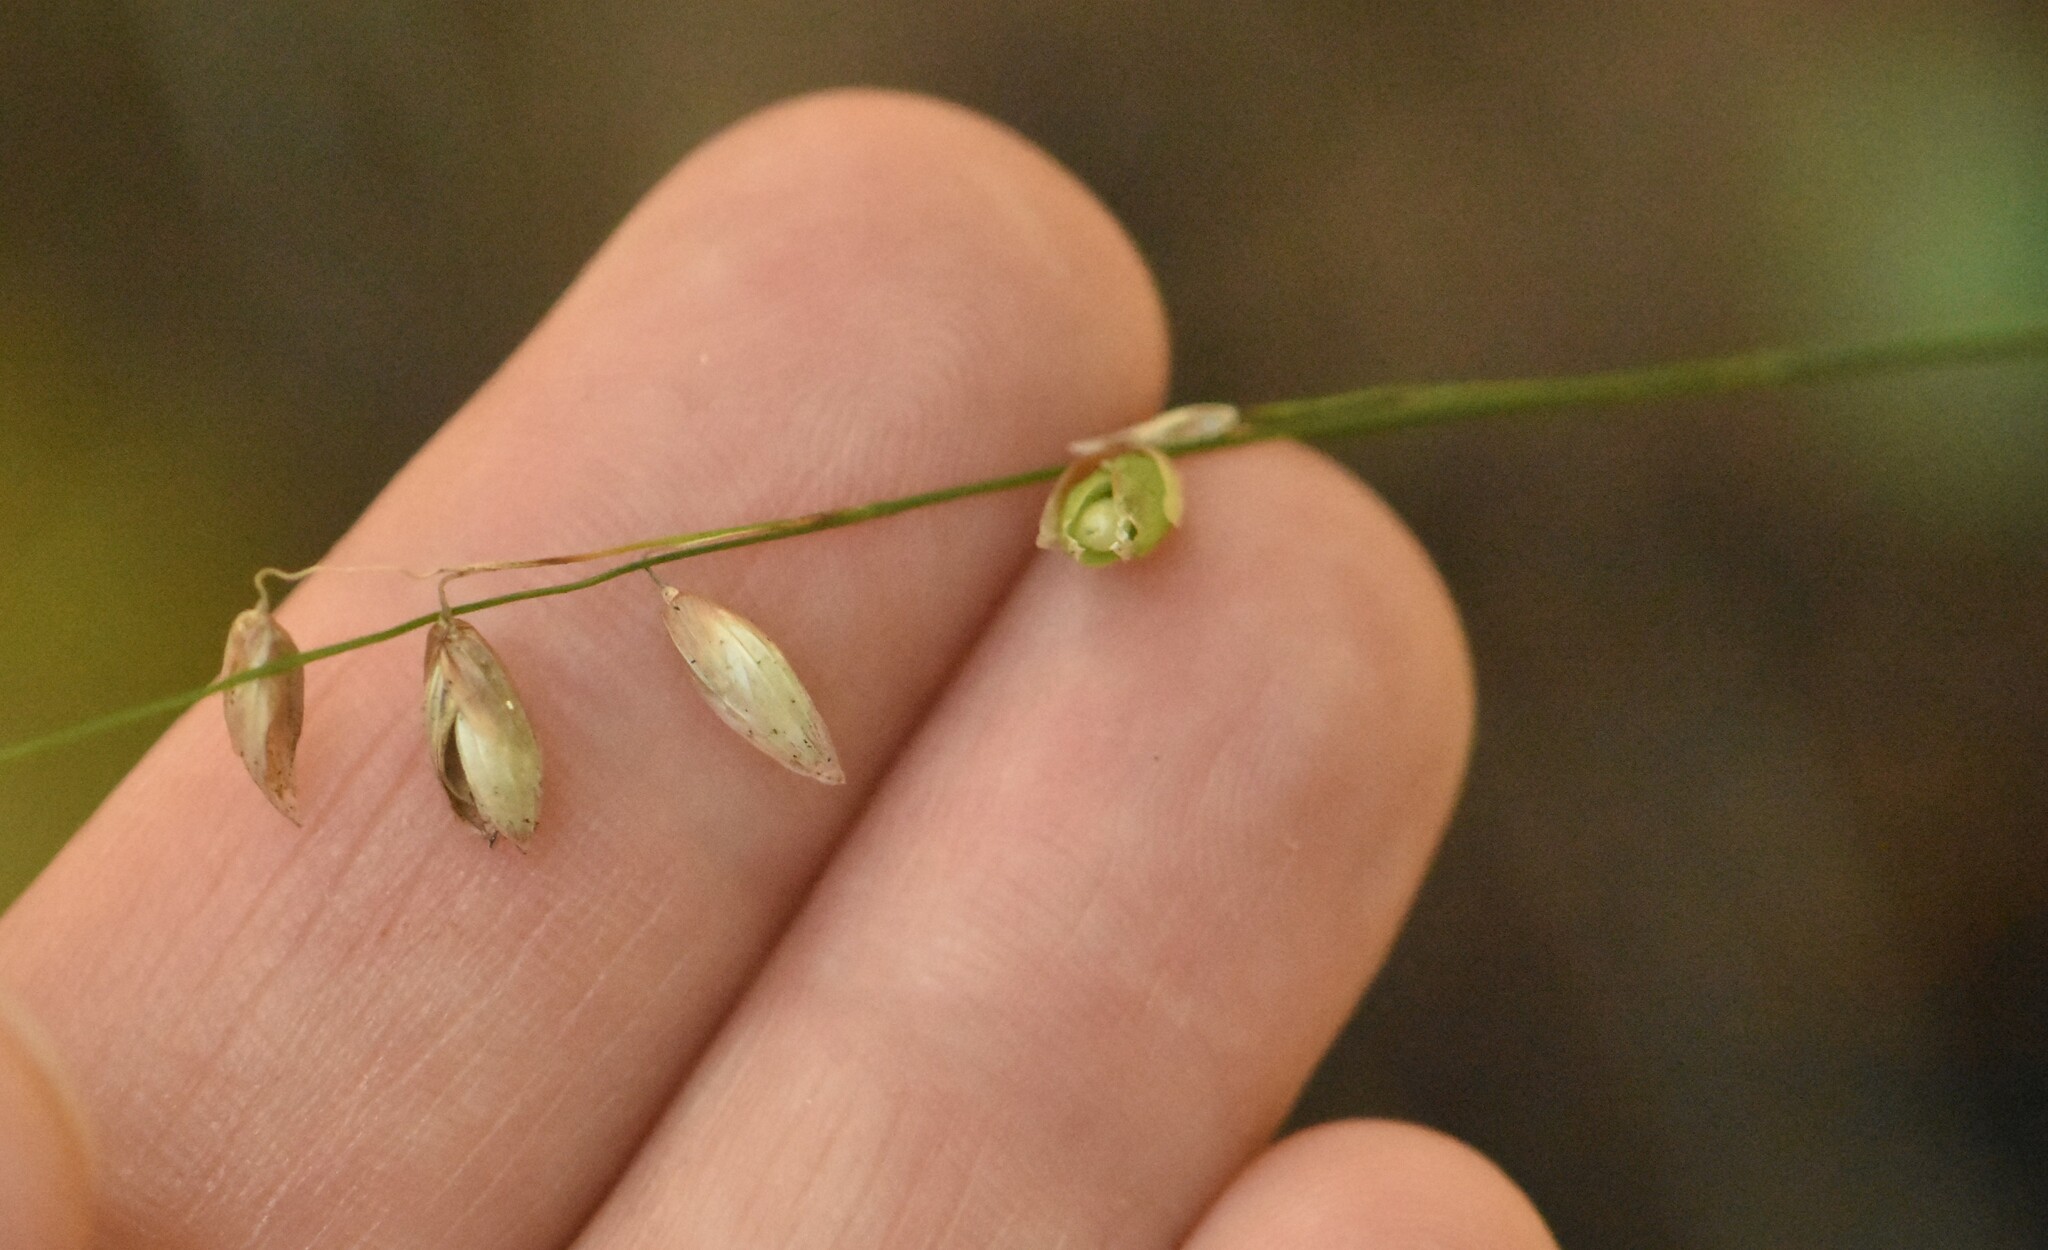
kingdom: Plantae
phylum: Tracheophyta
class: Liliopsida
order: Poales
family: Poaceae
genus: Melica
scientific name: Melica nutans
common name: Mountain melick
